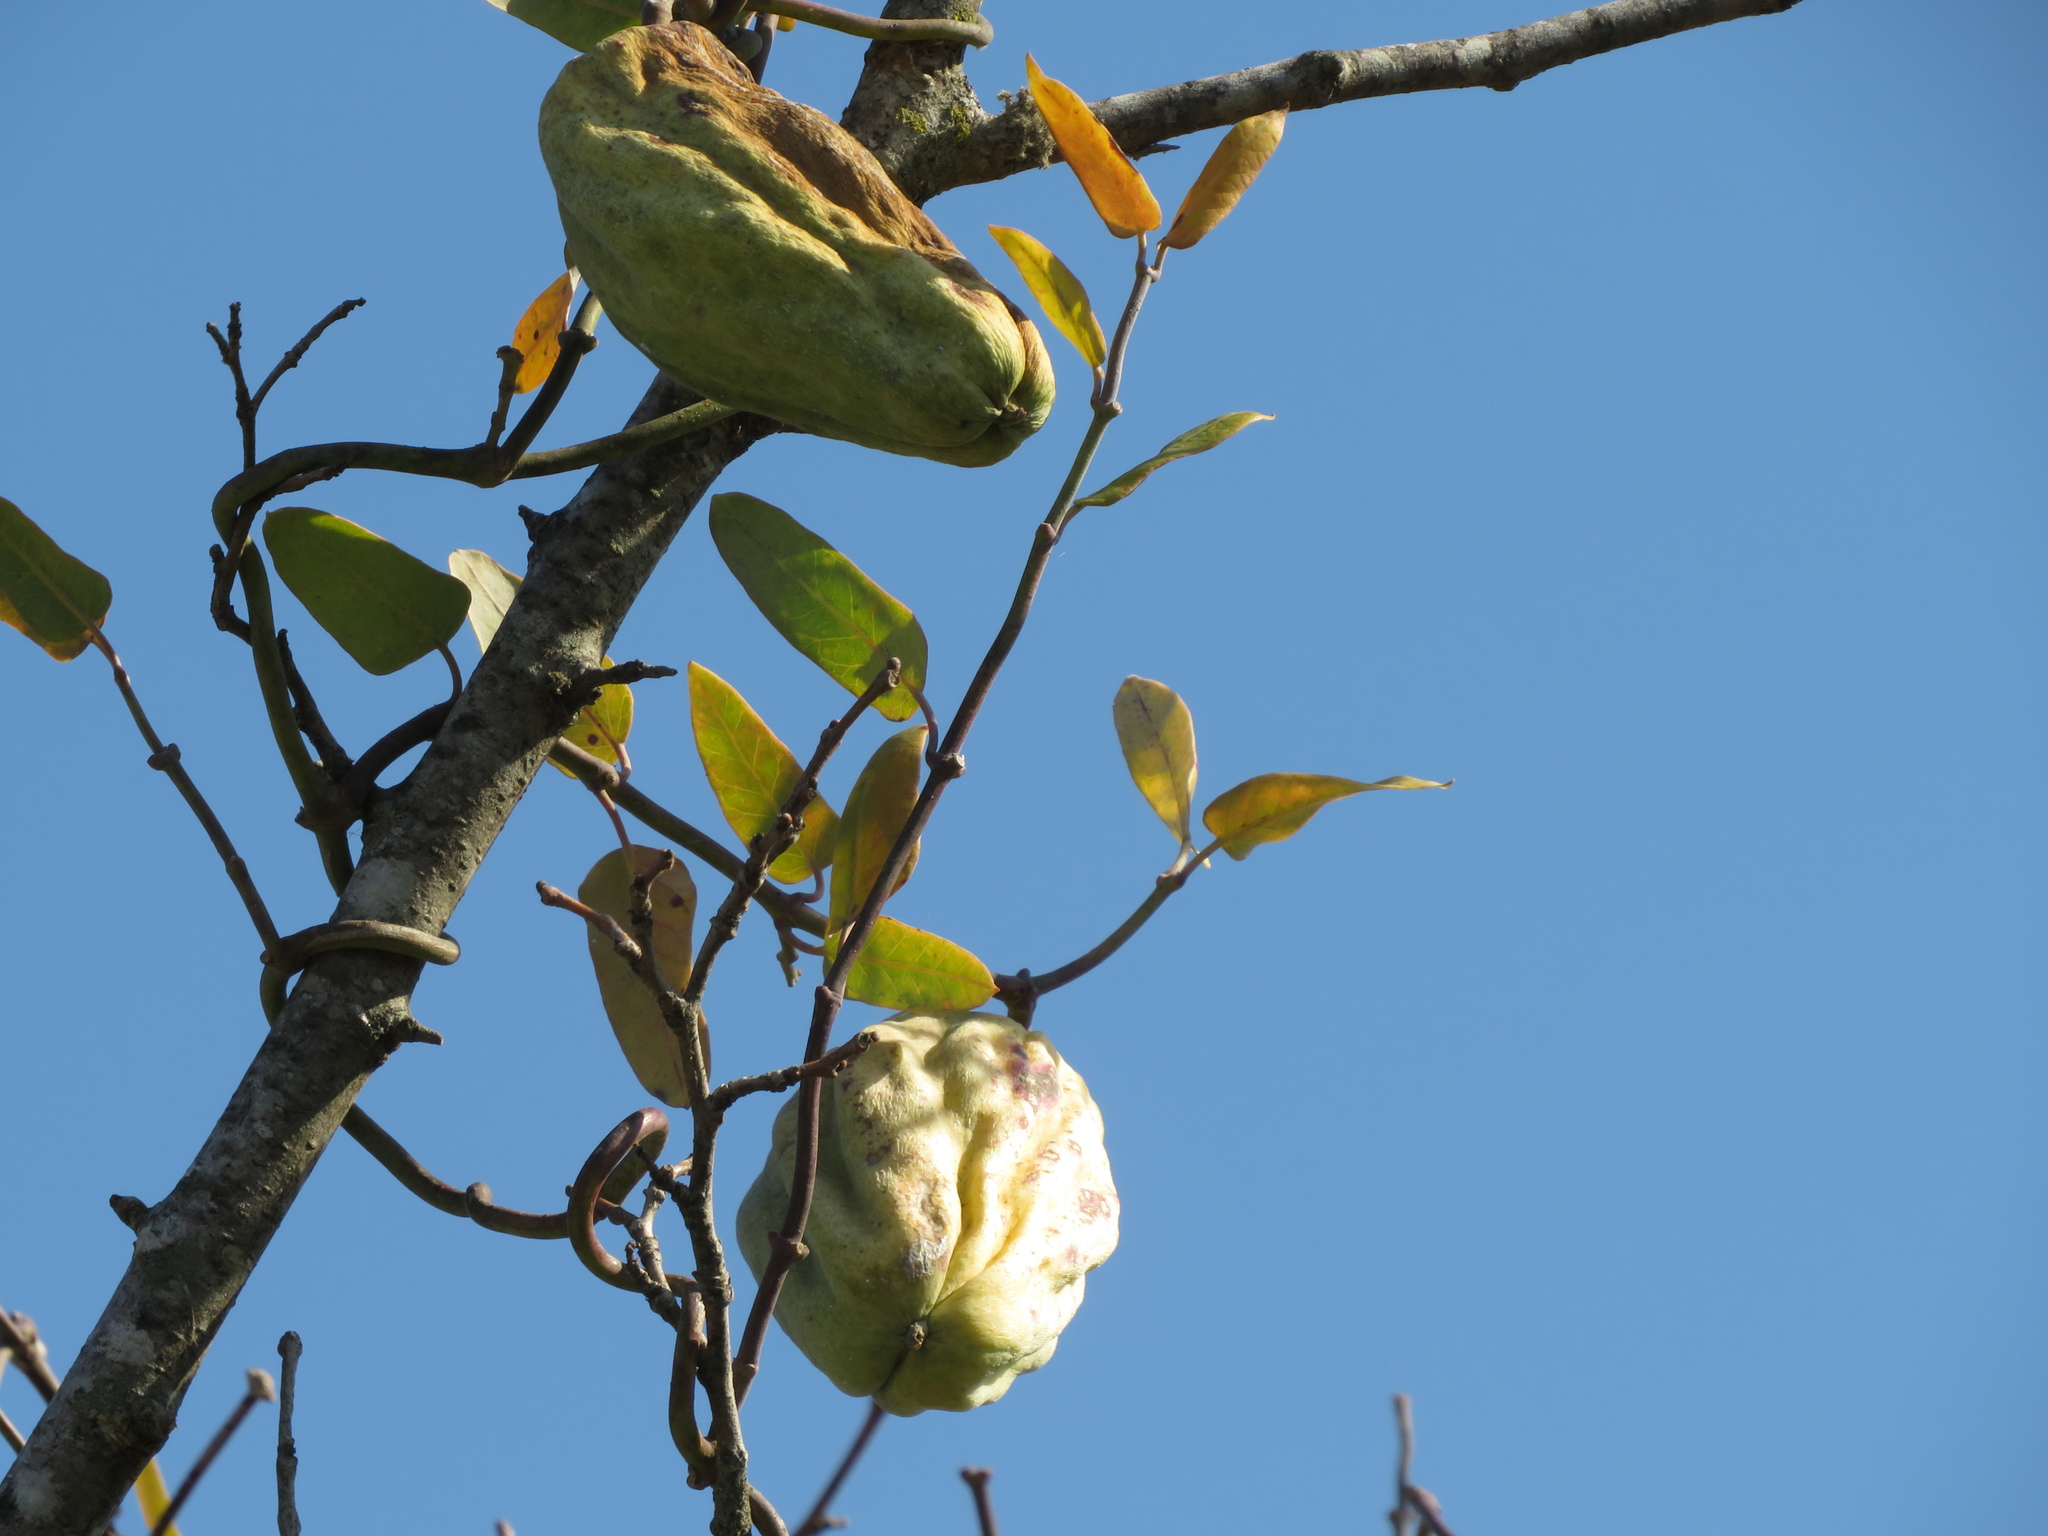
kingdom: Plantae
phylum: Tracheophyta
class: Magnoliopsida
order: Gentianales
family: Apocynaceae
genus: Araujia
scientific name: Araujia sericifera
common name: White bladderflower
